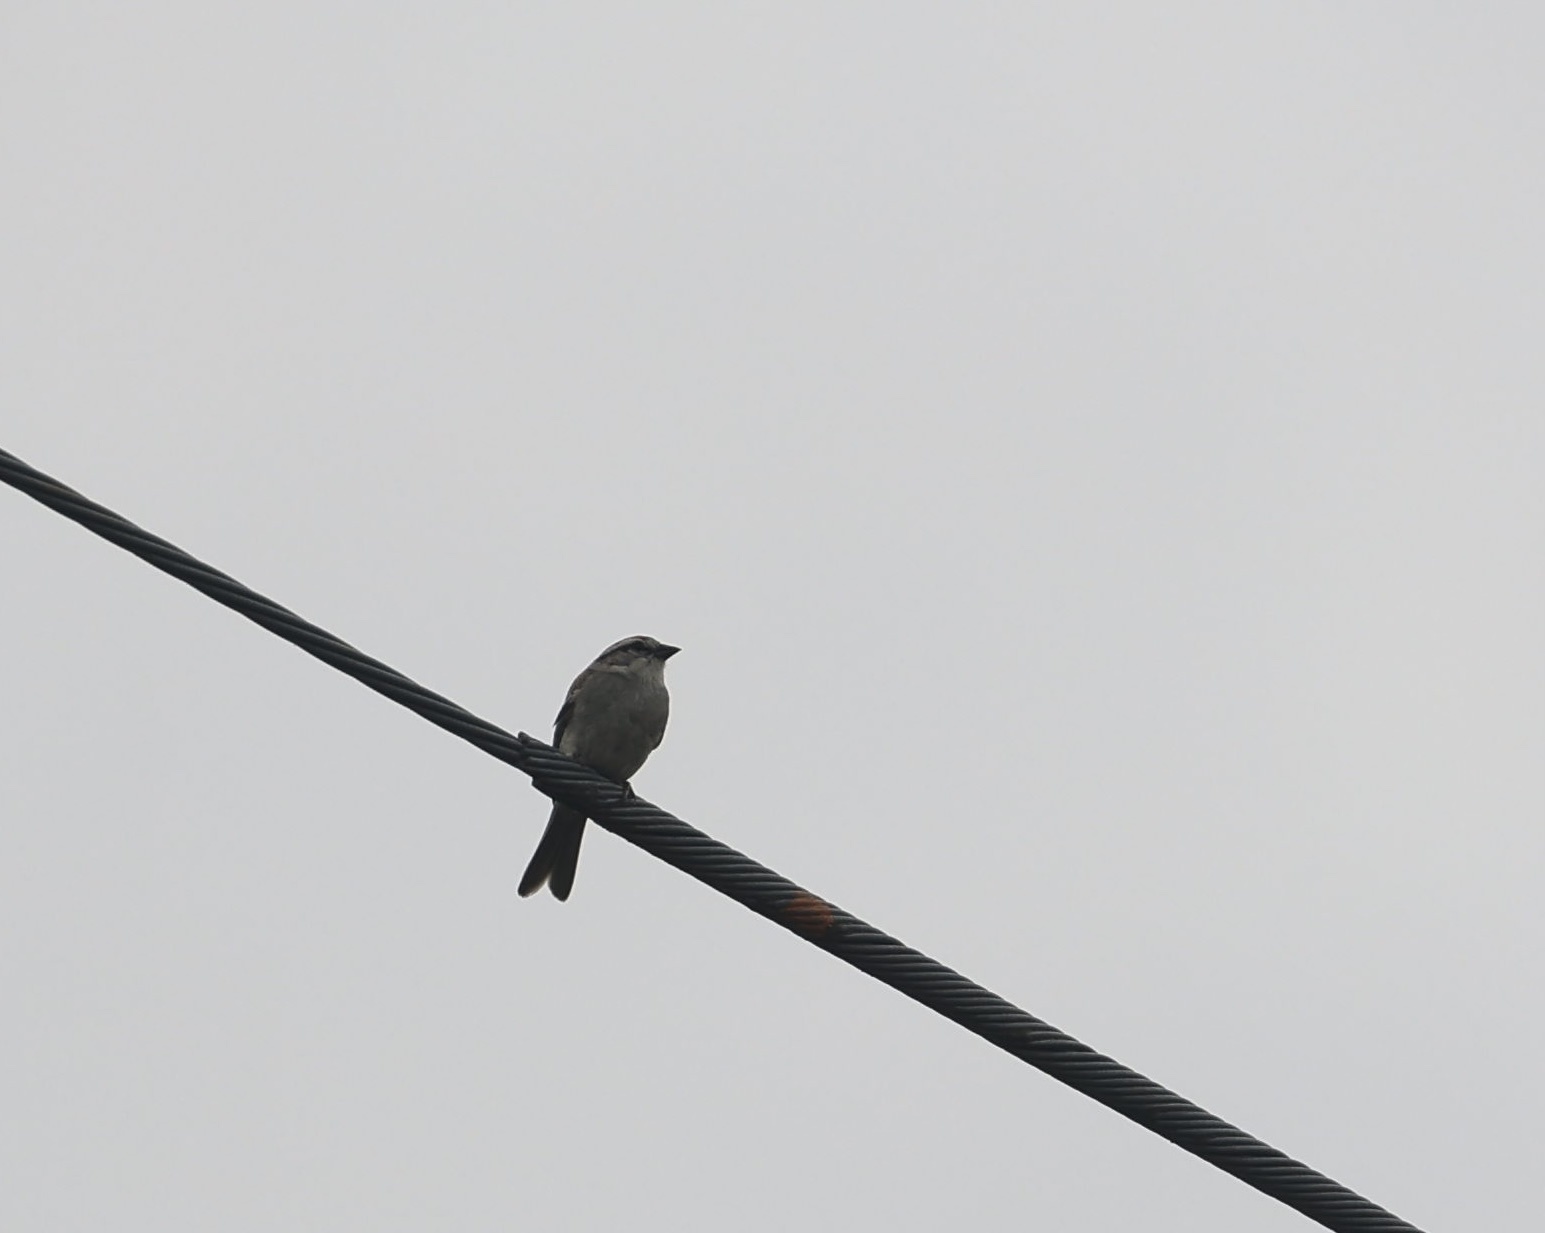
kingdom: Animalia
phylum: Chordata
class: Aves
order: Passeriformes
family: Passerellidae
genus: Spizella
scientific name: Spizella passerina
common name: Chipping sparrow
